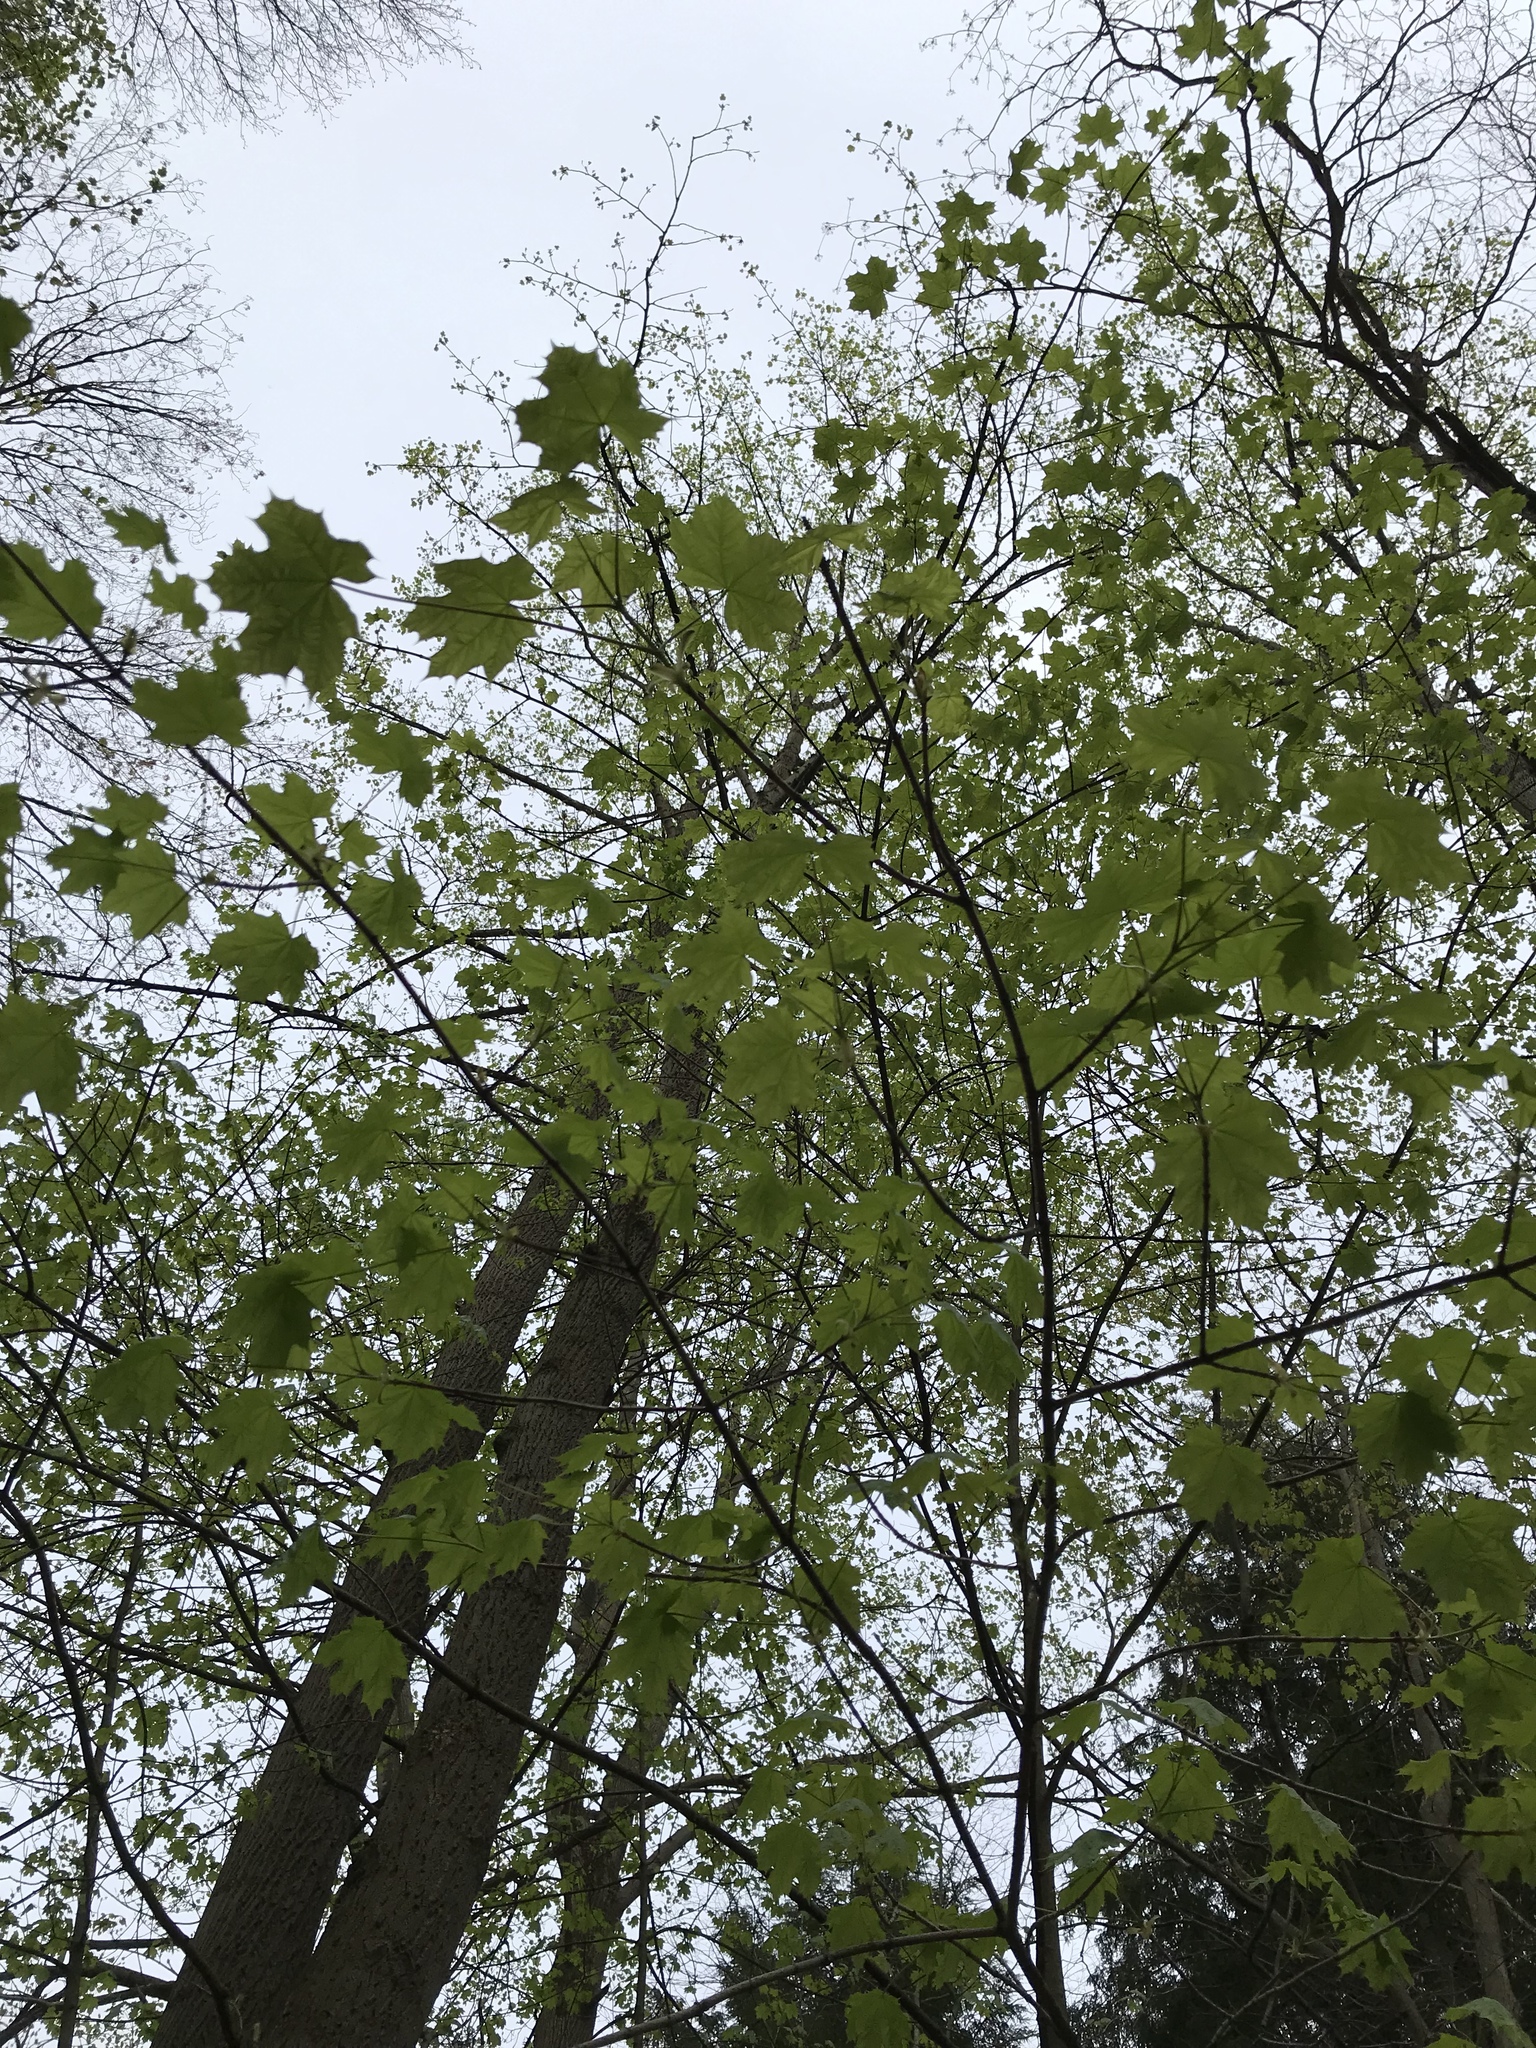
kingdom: Plantae
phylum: Tracheophyta
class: Magnoliopsida
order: Sapindales
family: Sapindaceae
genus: Acer
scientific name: Acer platanoides
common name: Norway maple
